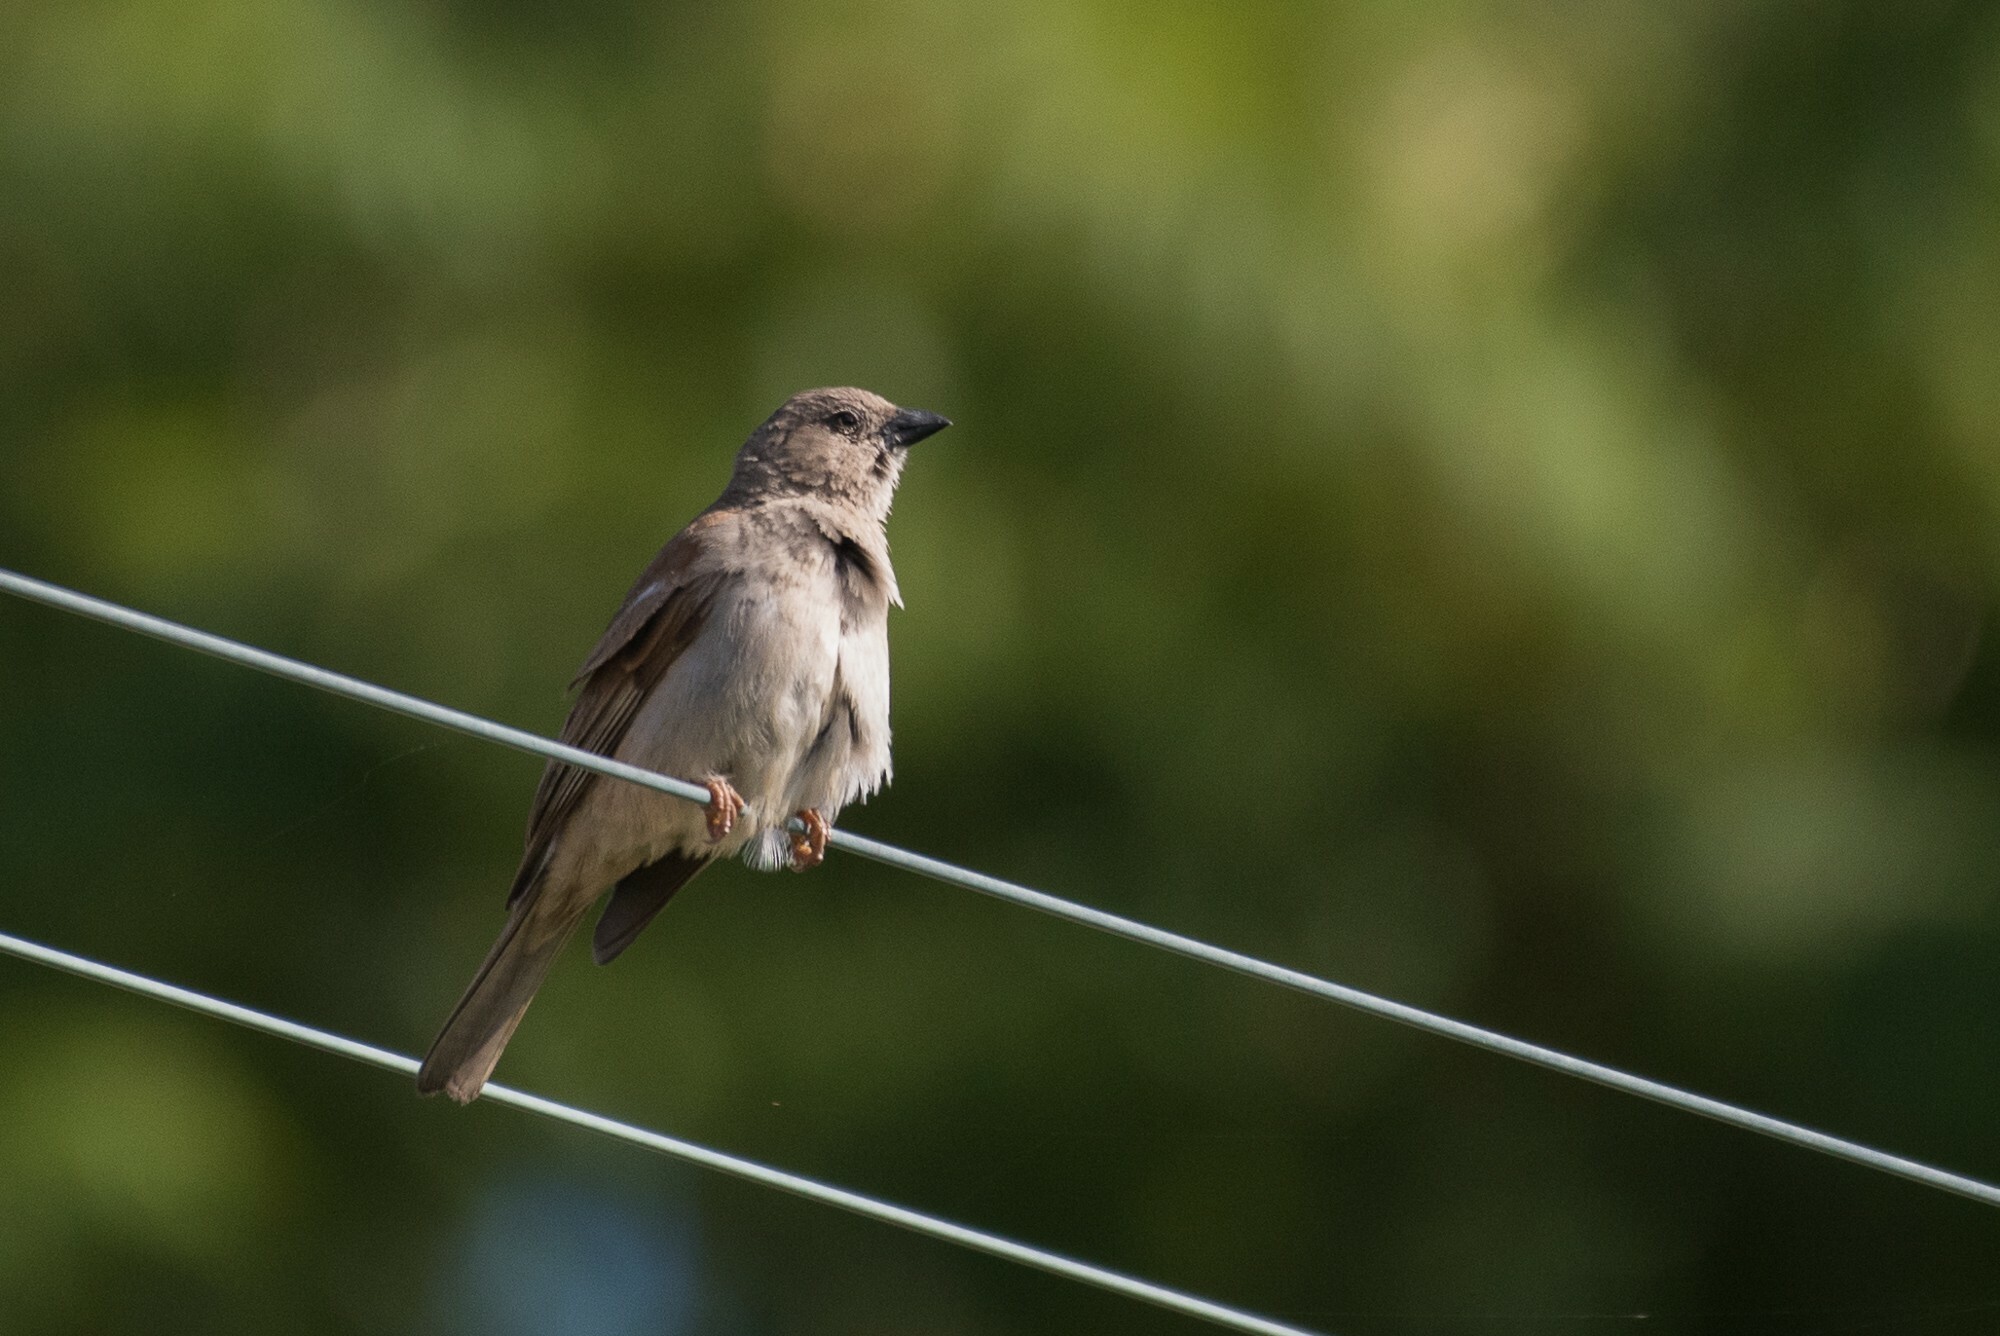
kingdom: Animalia
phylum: Chordata
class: Aves
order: Passeriformes
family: Passeridae
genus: Passer
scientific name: Passer diffusus
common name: Southern grey-headed sparrow
